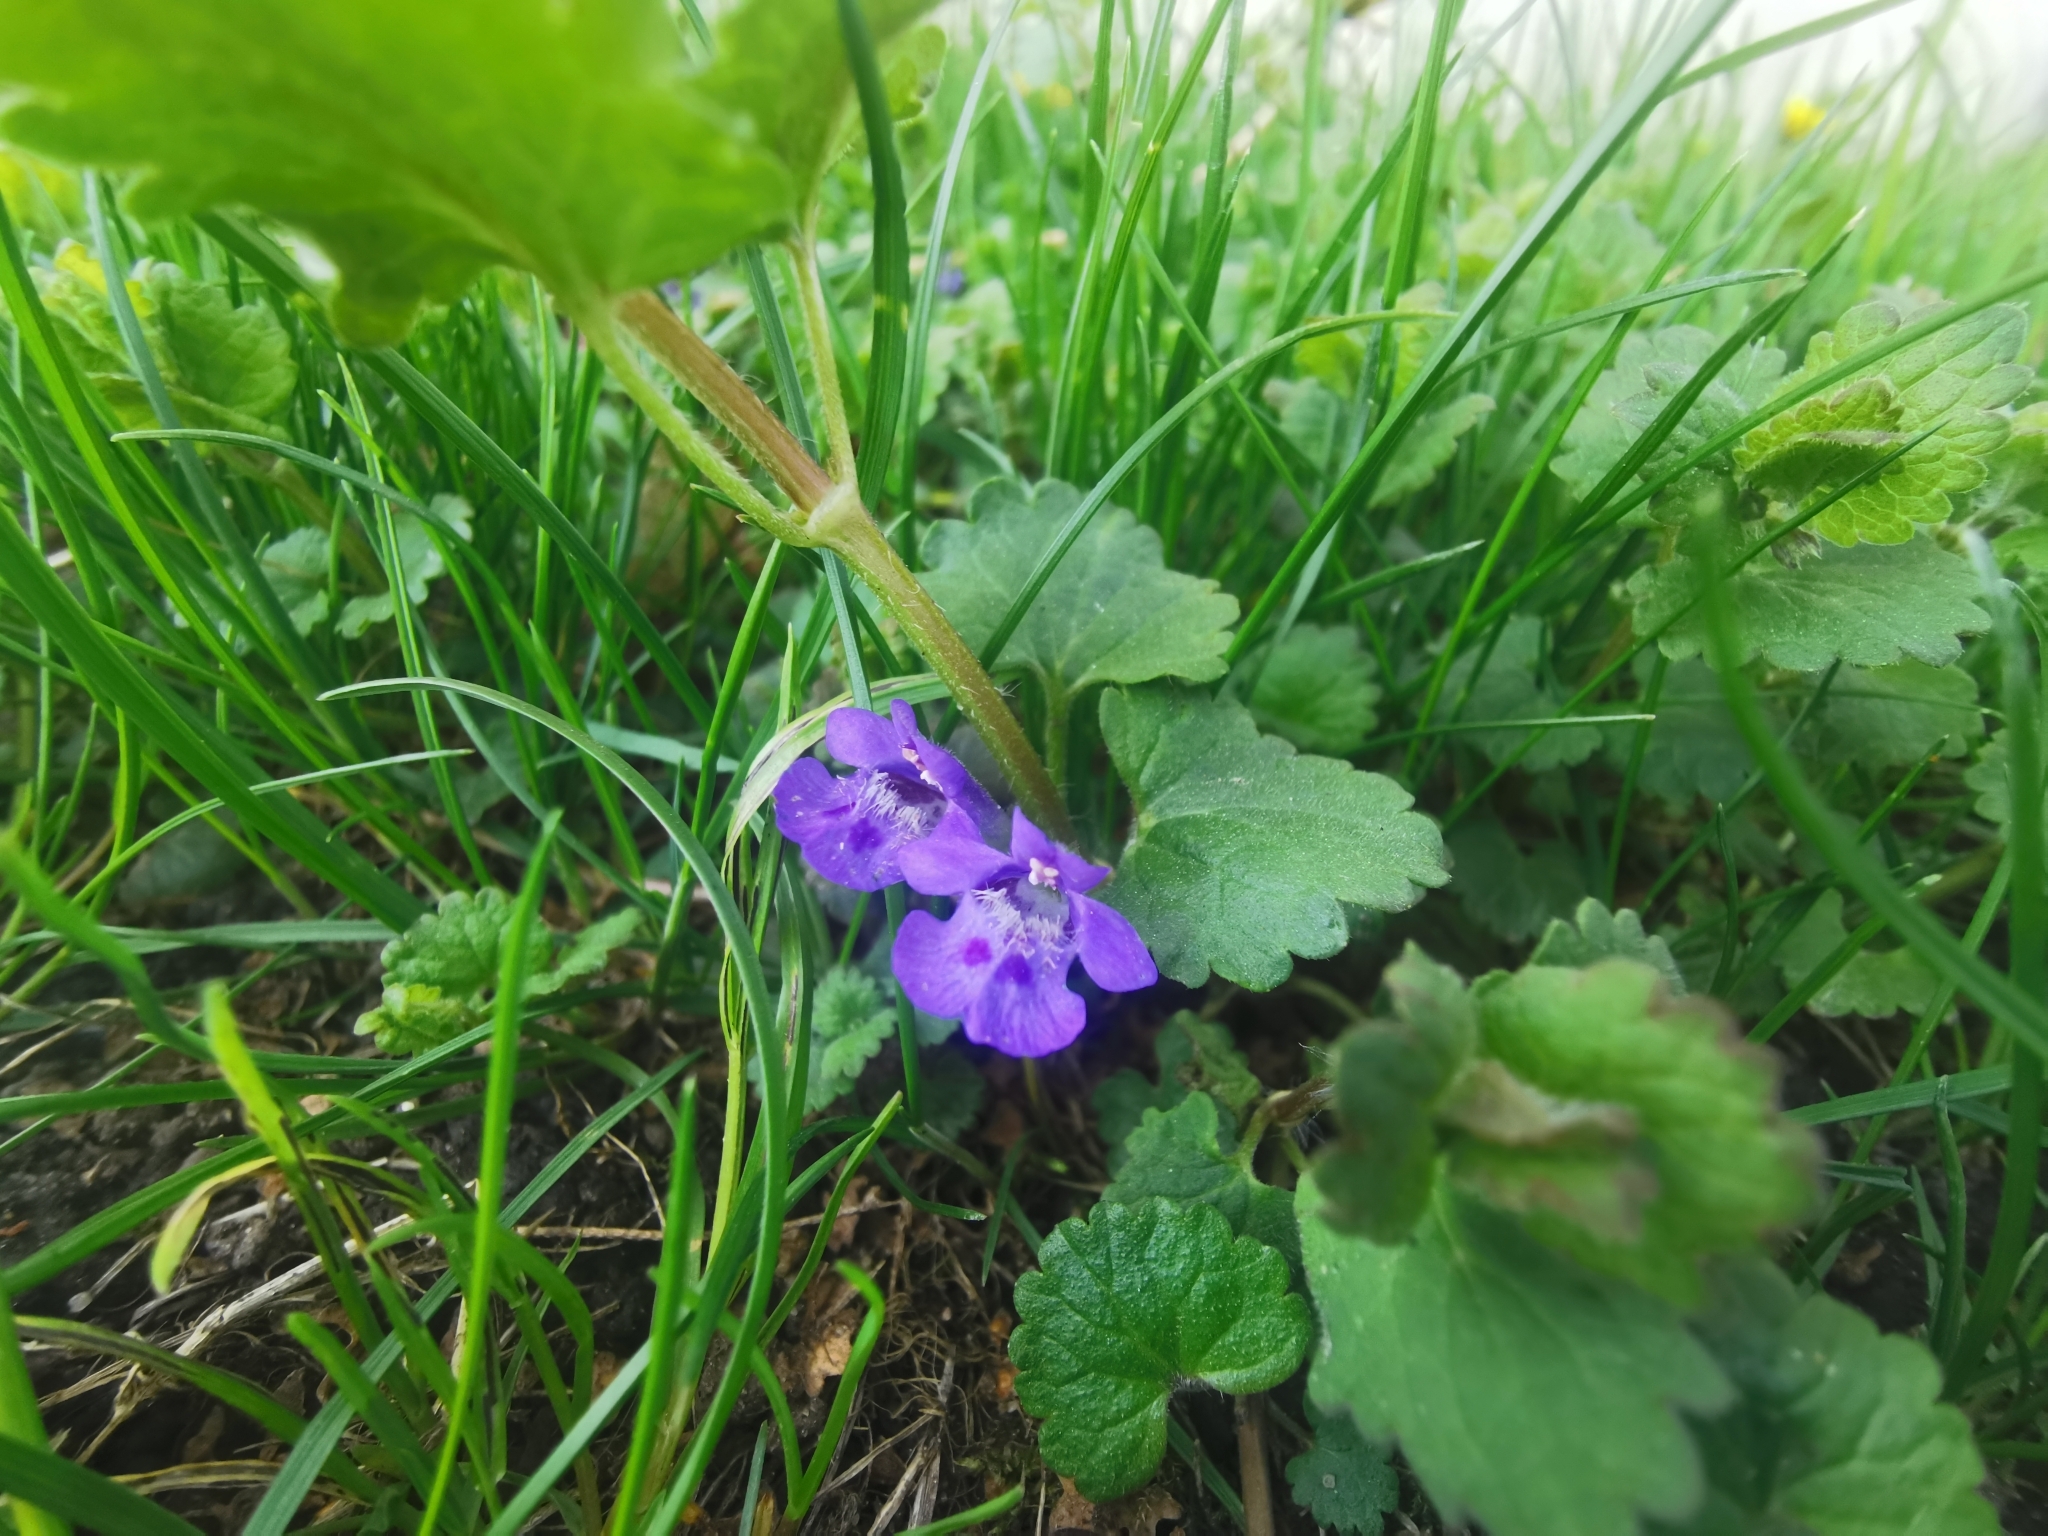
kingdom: Plantae
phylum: Tracheophyta
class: Magnoliopsida
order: Lamiales
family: Lamiaceae
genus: Glechoma
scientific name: Glechoma hederacea
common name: Ground ivy
